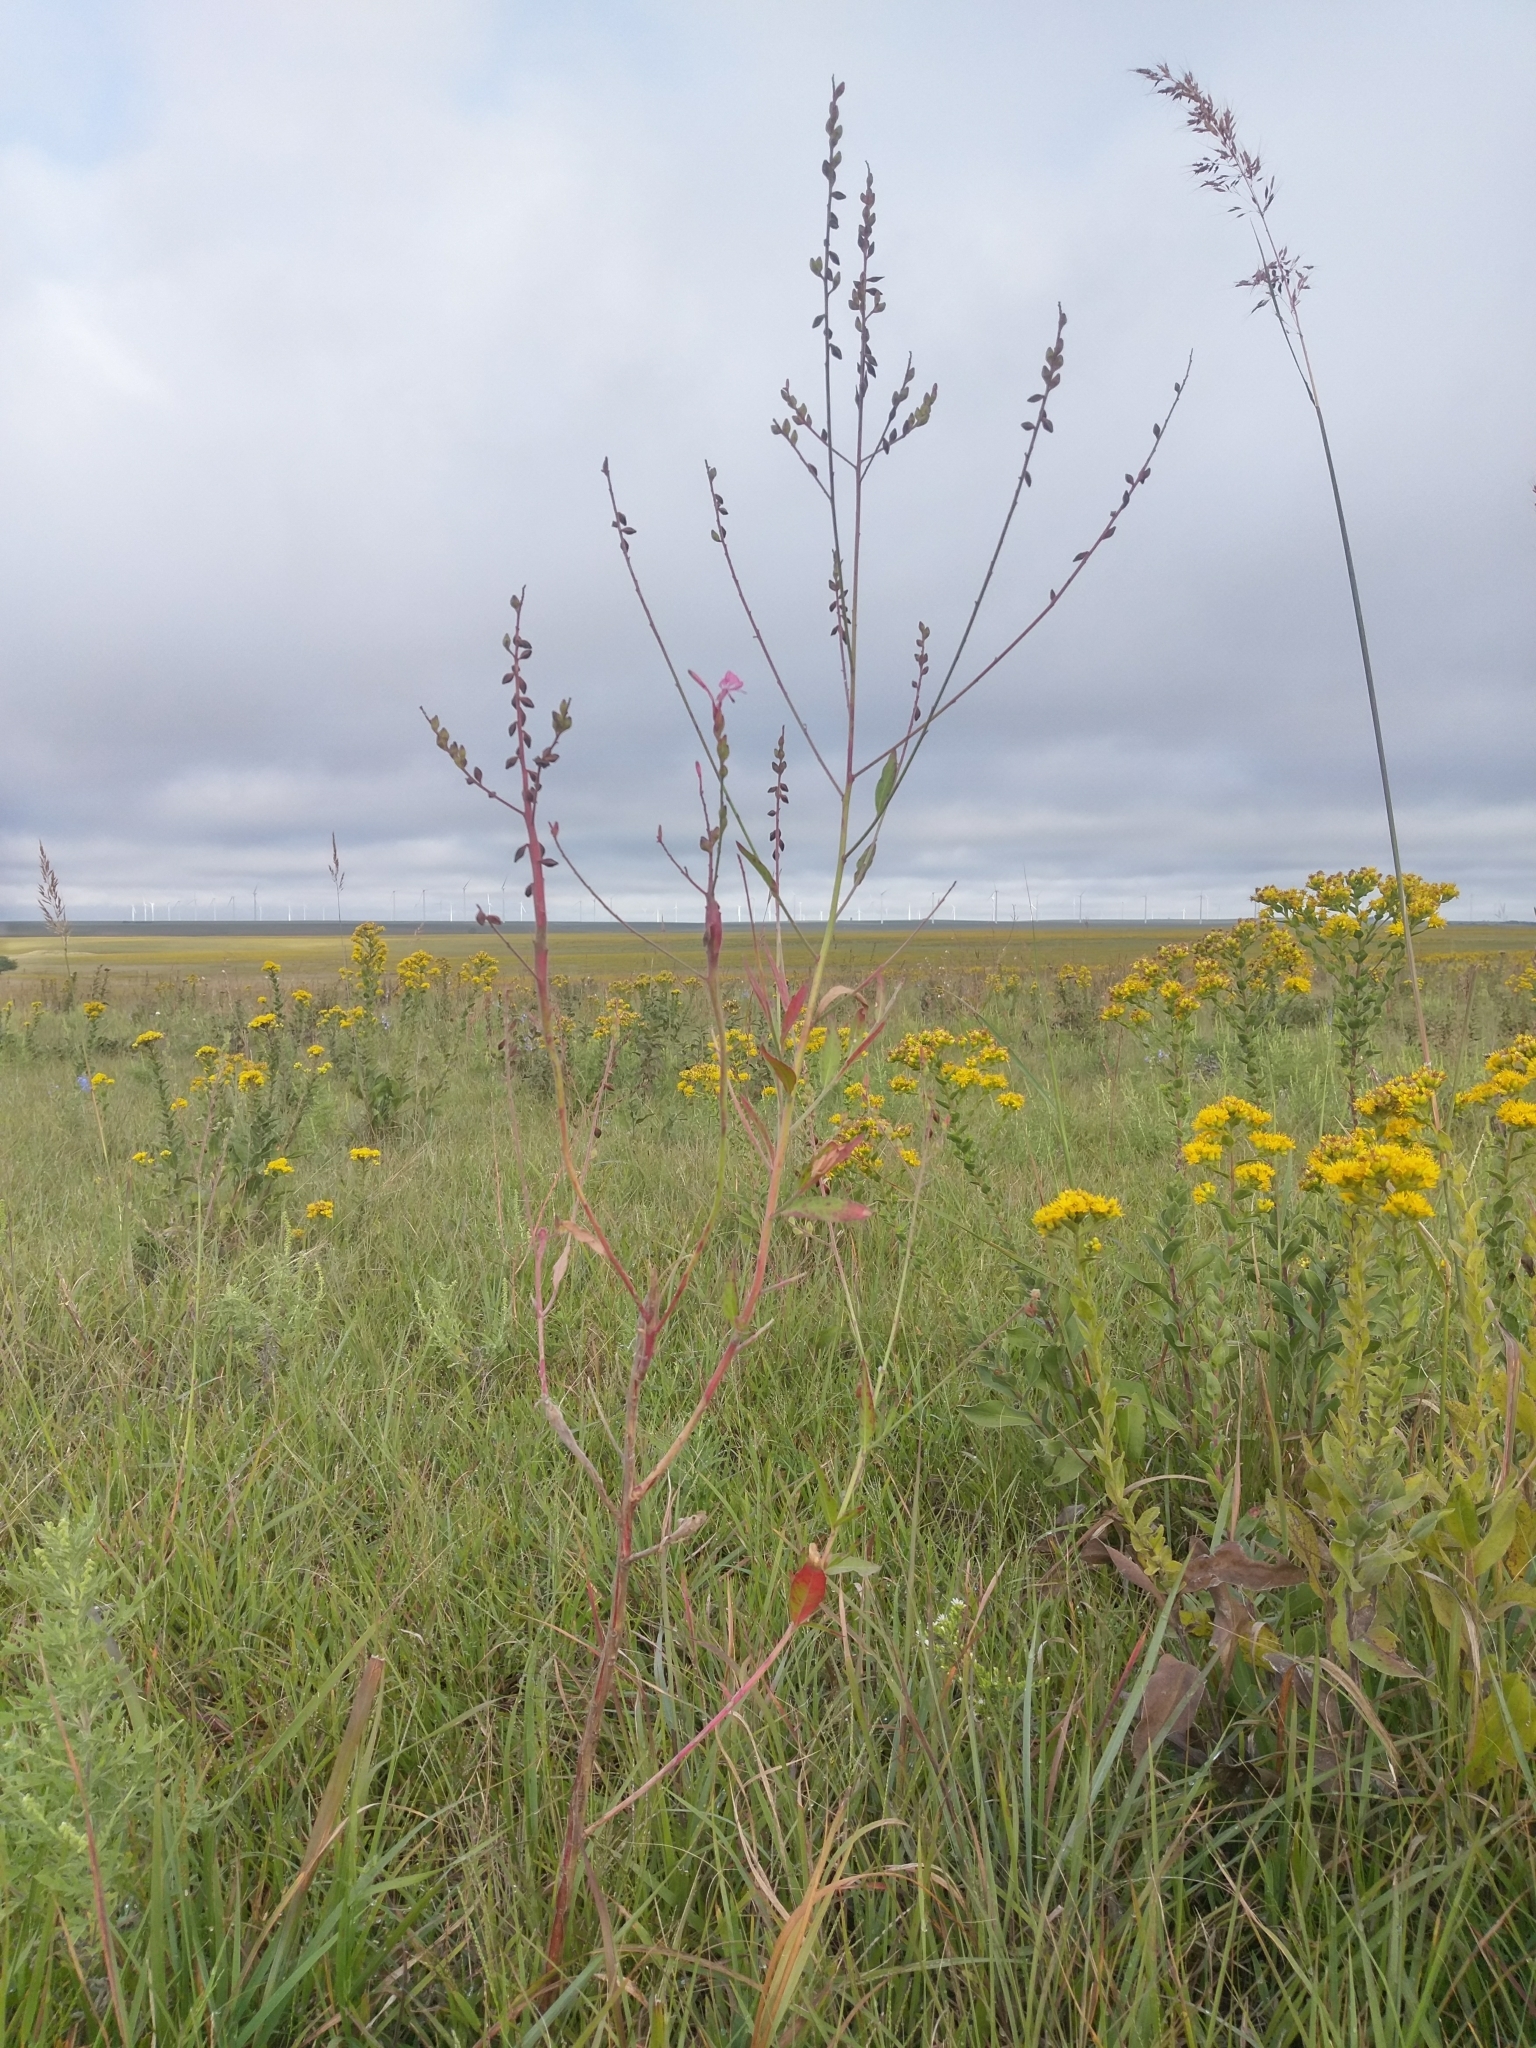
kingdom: Plantae
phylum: Tracheophyta
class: Magnoliopsida
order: Myrtales
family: Onagraceae
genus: Oenothera
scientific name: Oenothera curtiflora
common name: Velvetweed
